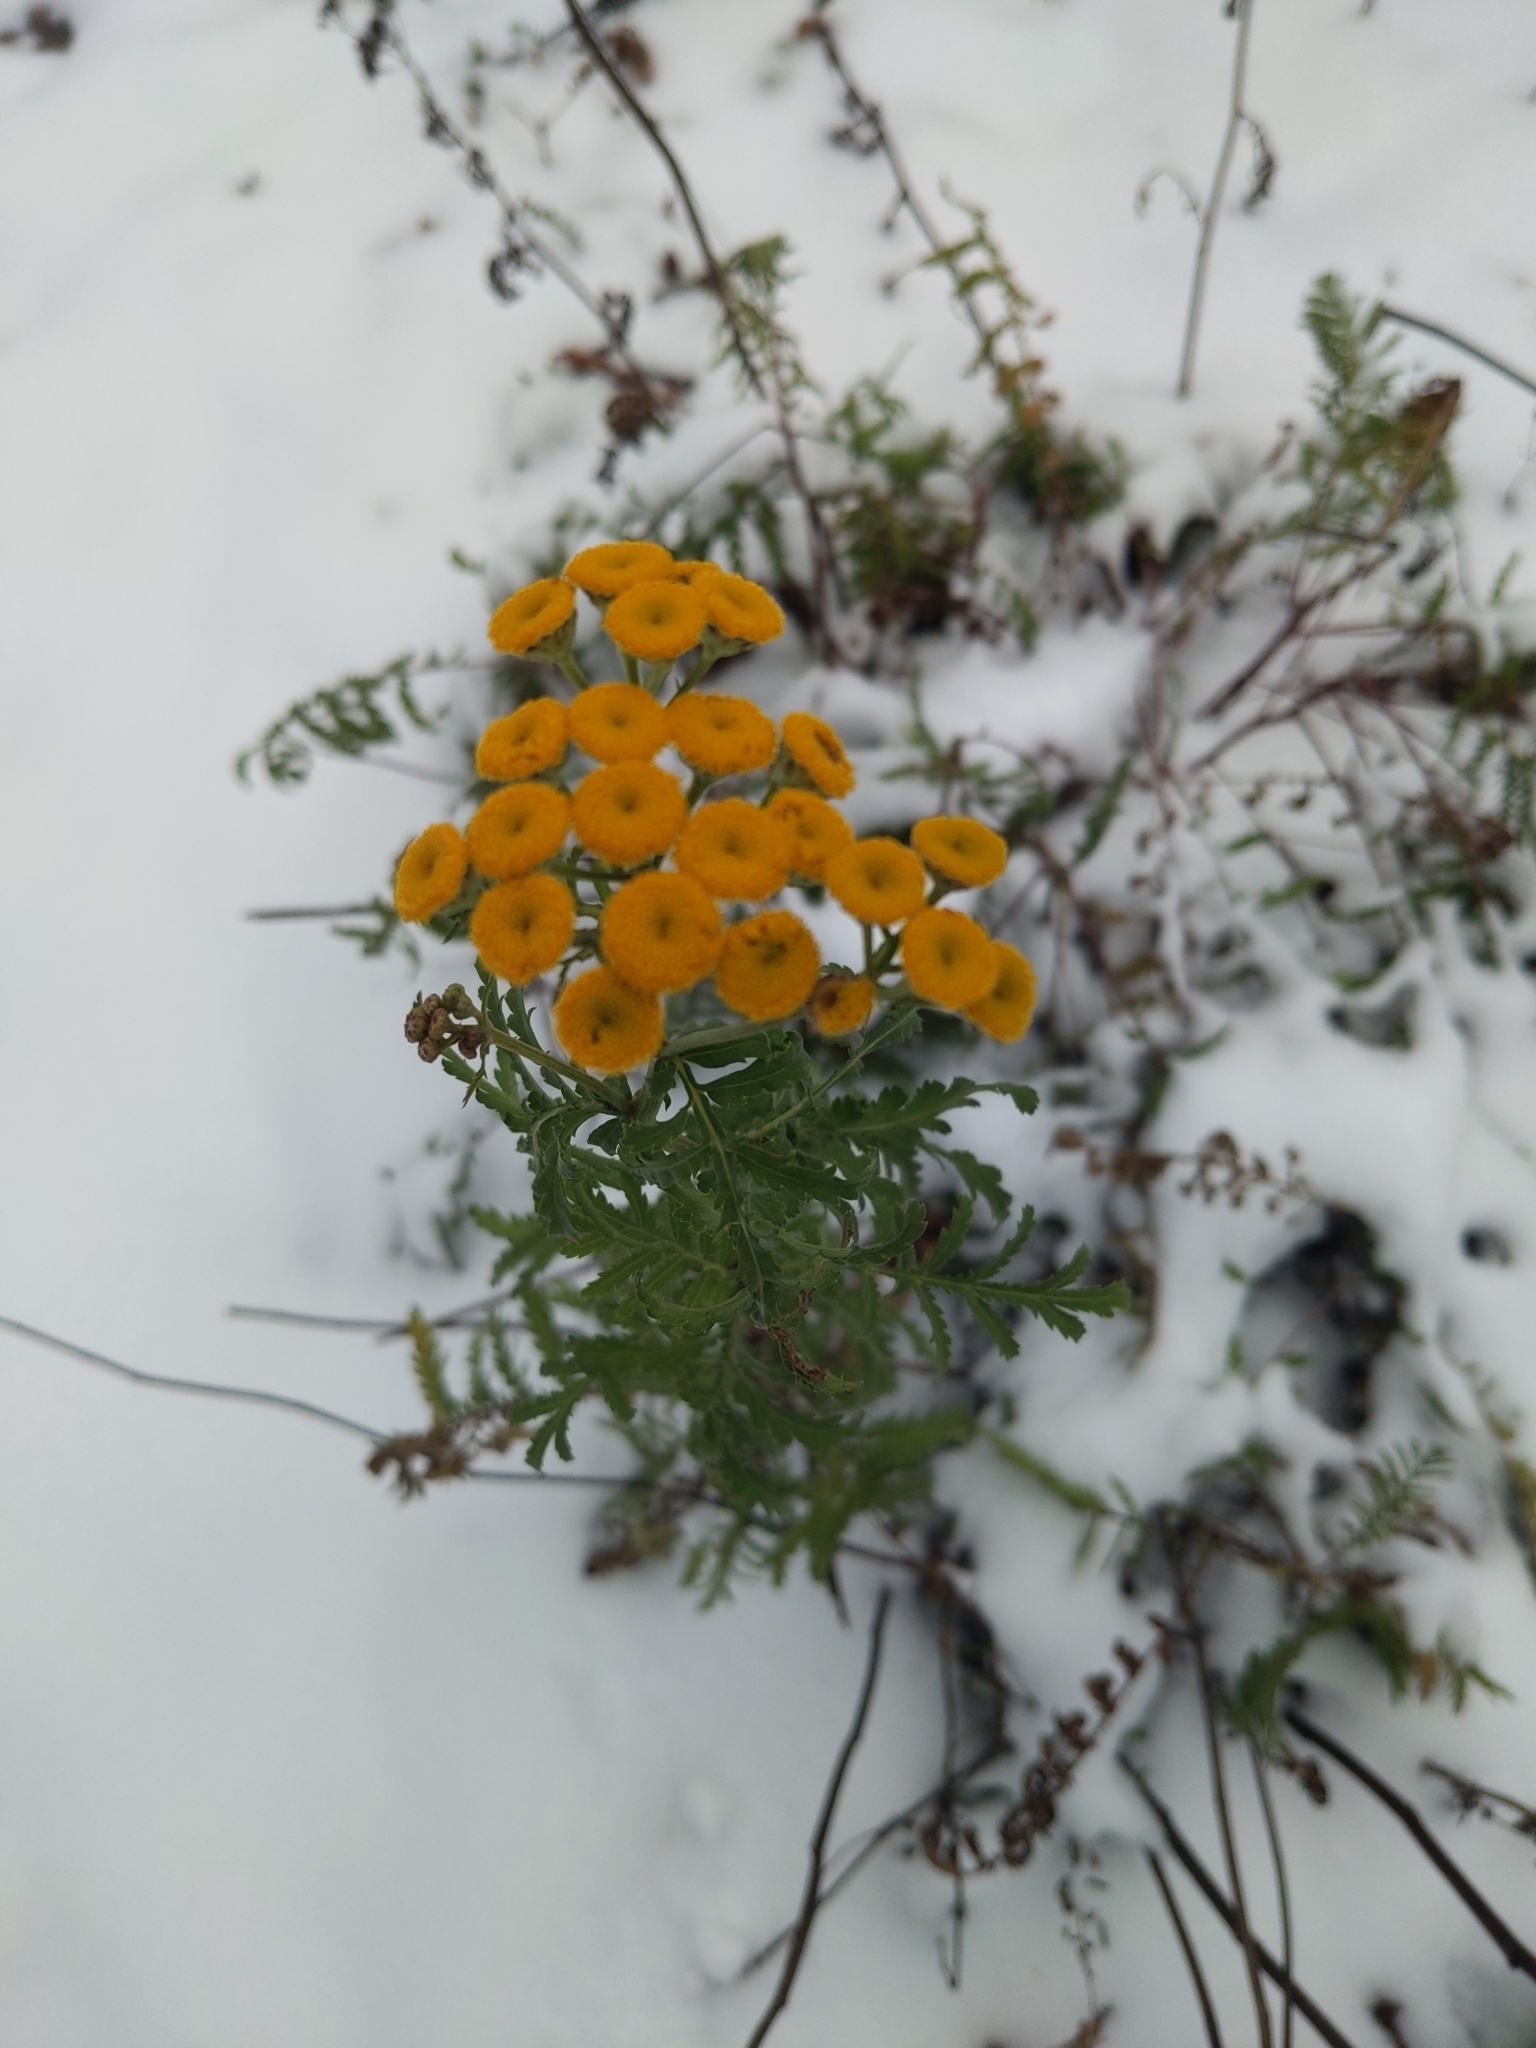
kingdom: Plantae
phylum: Tracheophyta
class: Magnoliopsida
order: Asterales
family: Asteraceae
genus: Tanacetum
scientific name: Tanacetum vulgare
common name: Common tansy
